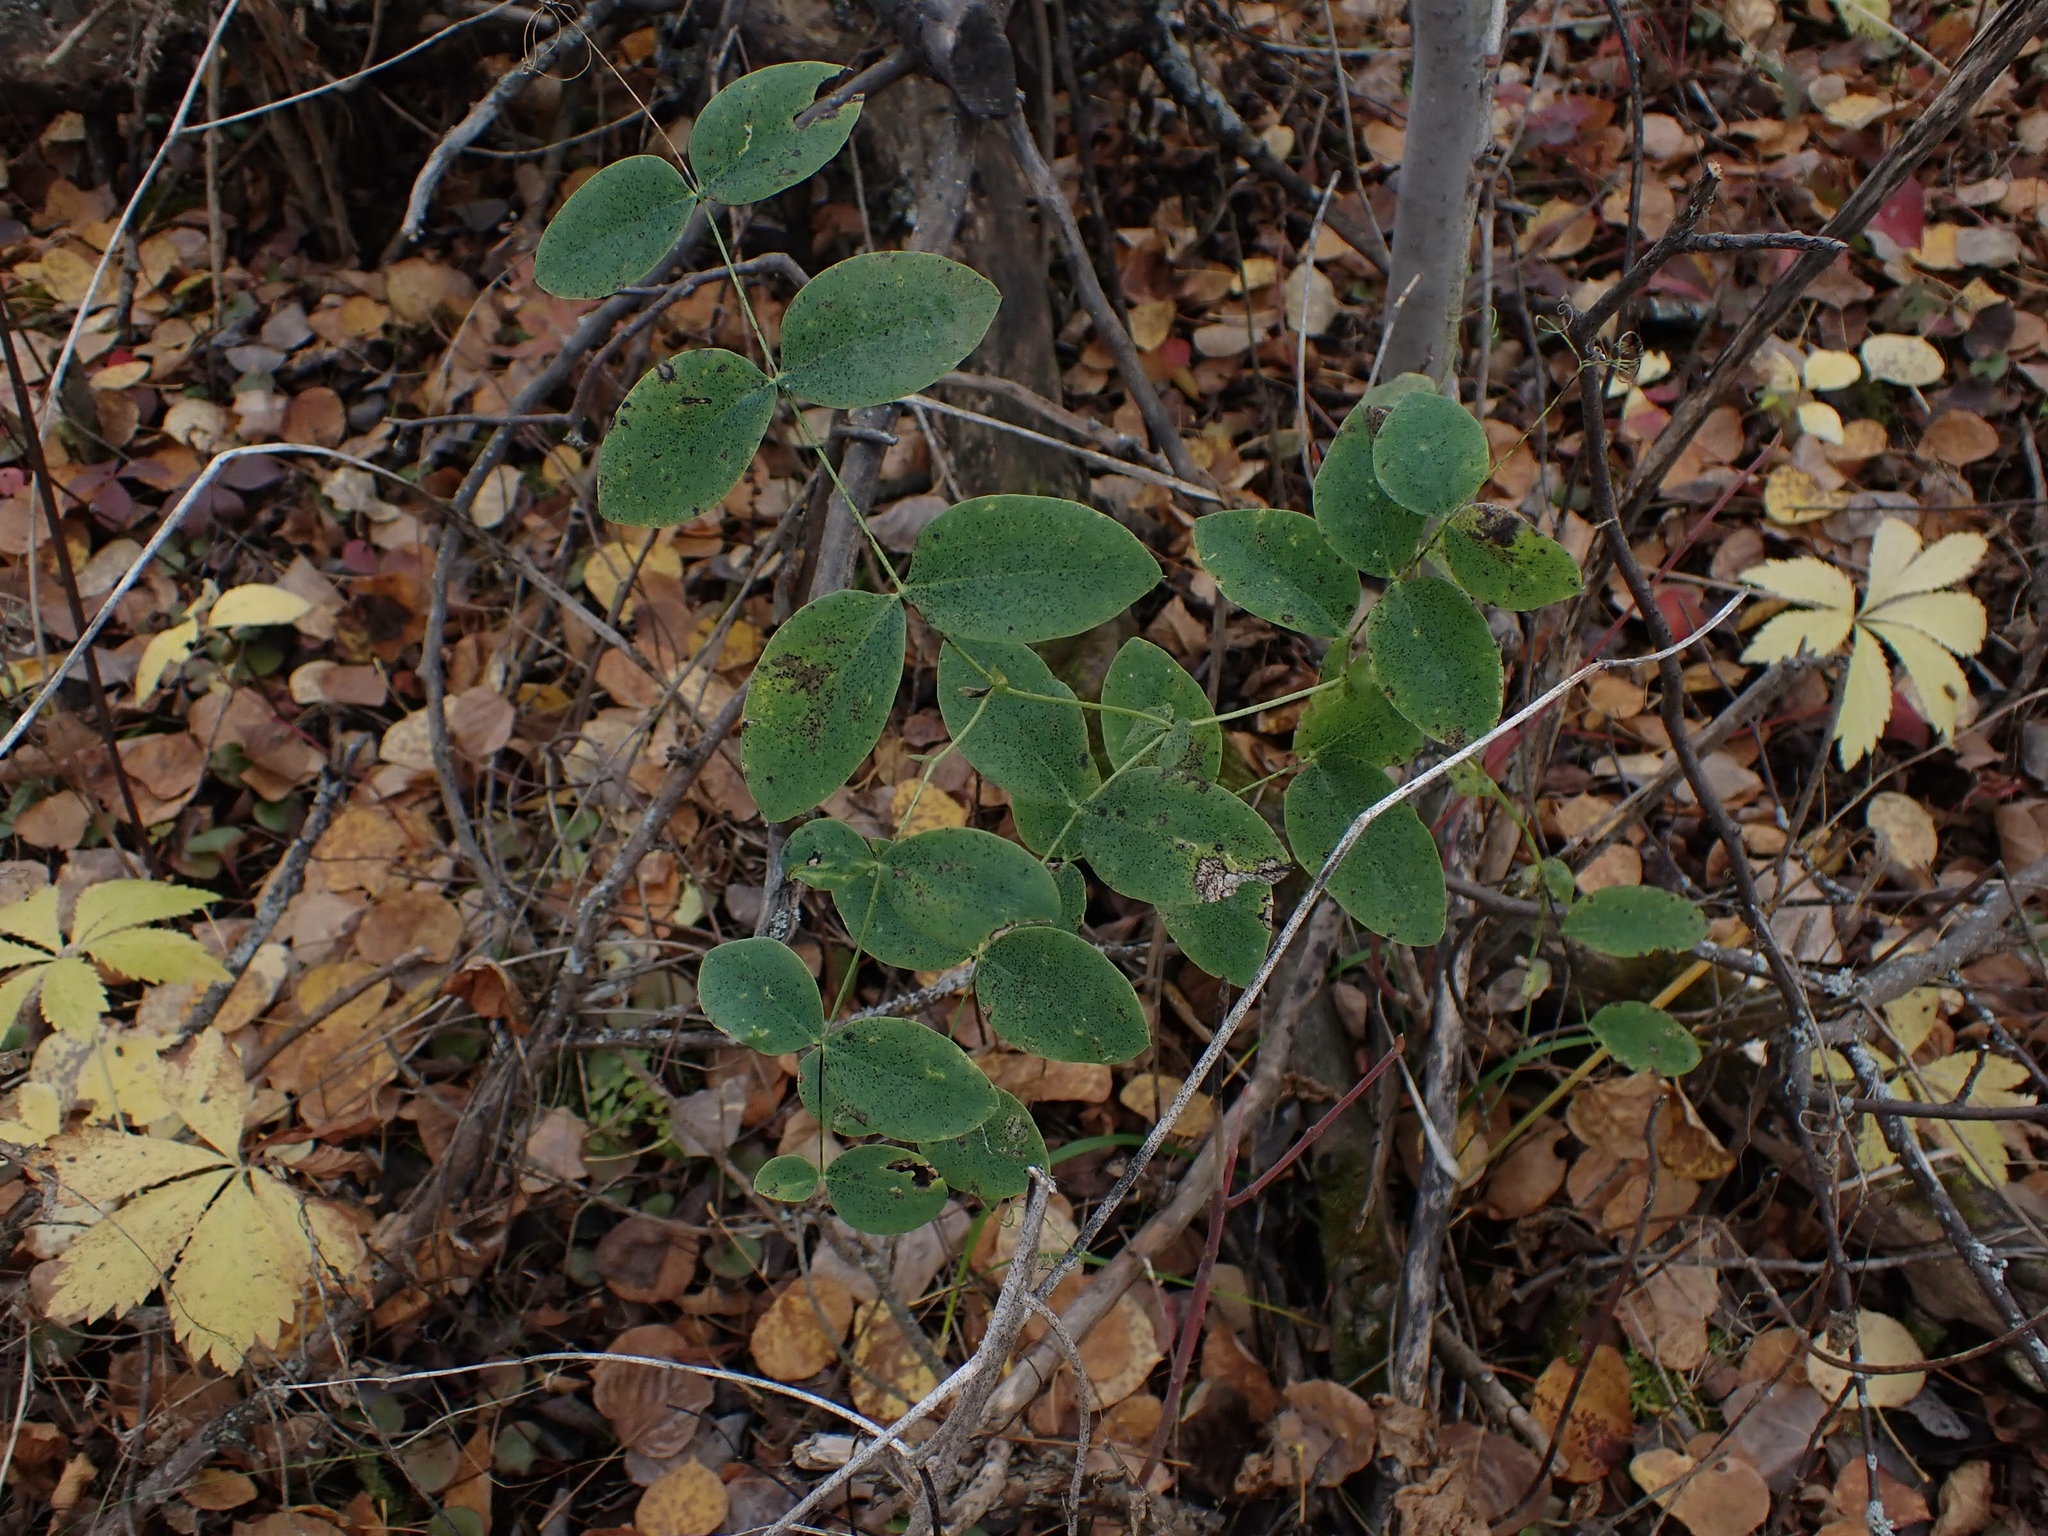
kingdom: Plantae
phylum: Tracheophyta
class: Magnoliopsida
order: Fabales
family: Fabaceae
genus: Lathyrus
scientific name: Lathyrus ochroleucus
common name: Pale vetchling
